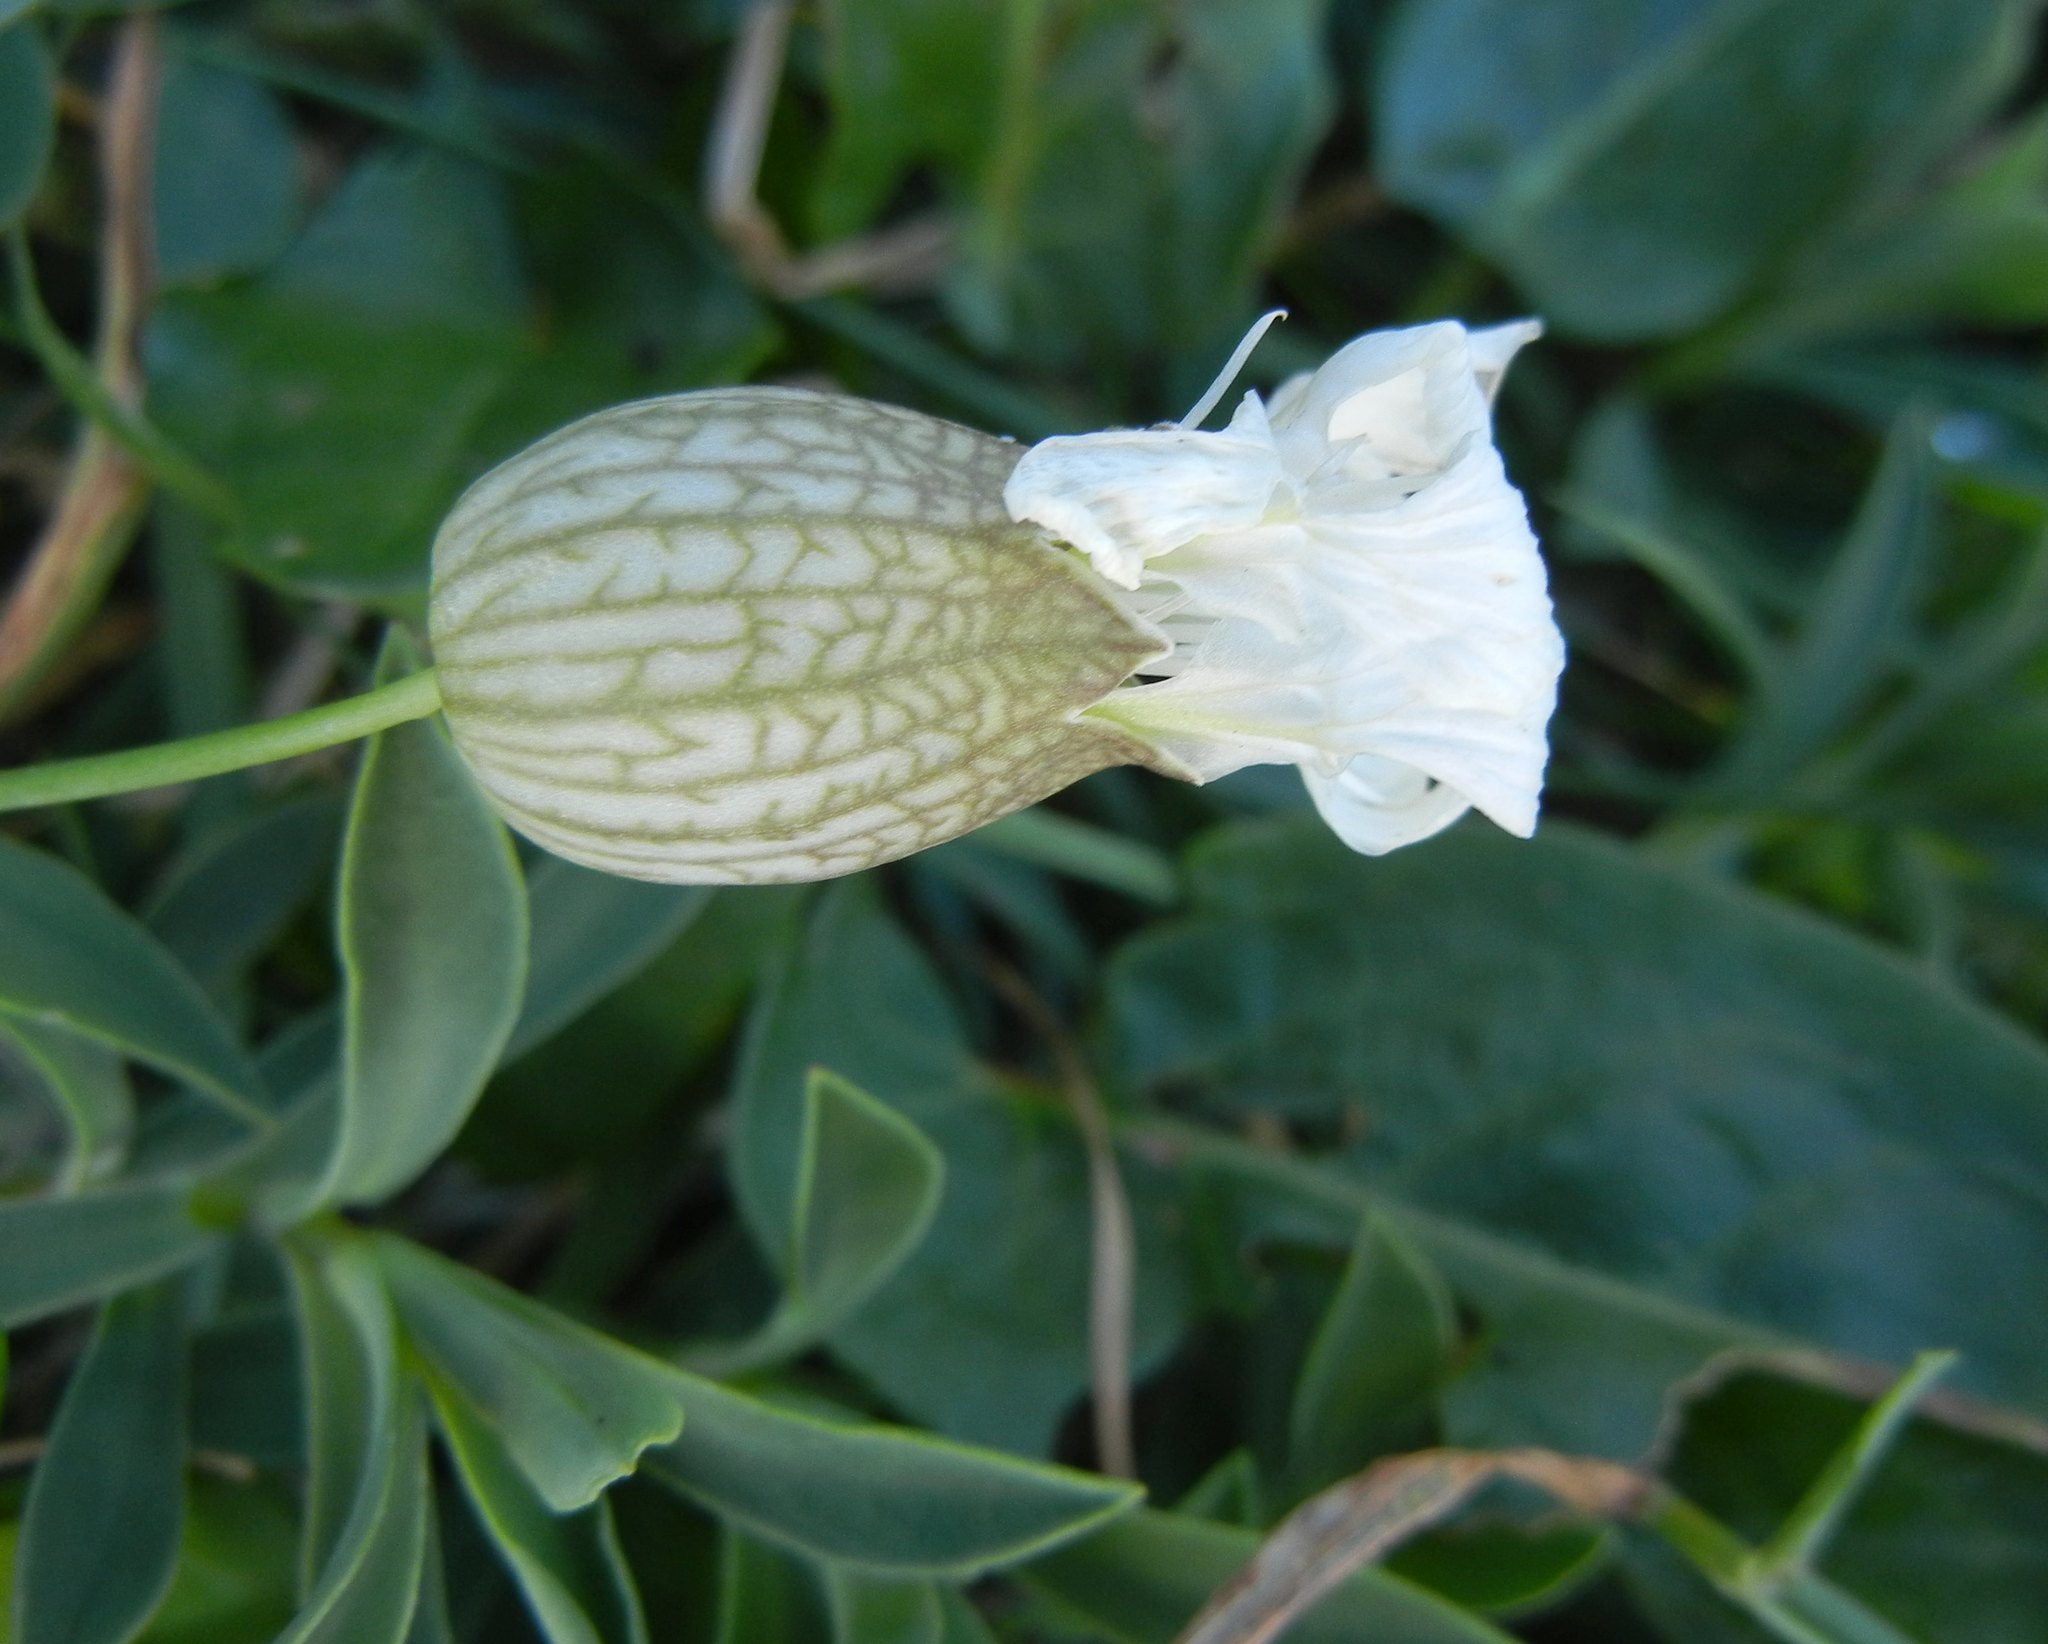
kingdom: Plantae
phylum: Tracheophyta
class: Magnoliopsida
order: Caryophyllales
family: Caryophyllaceae
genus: Silene
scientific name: Silene uniflora
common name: Sea campion
